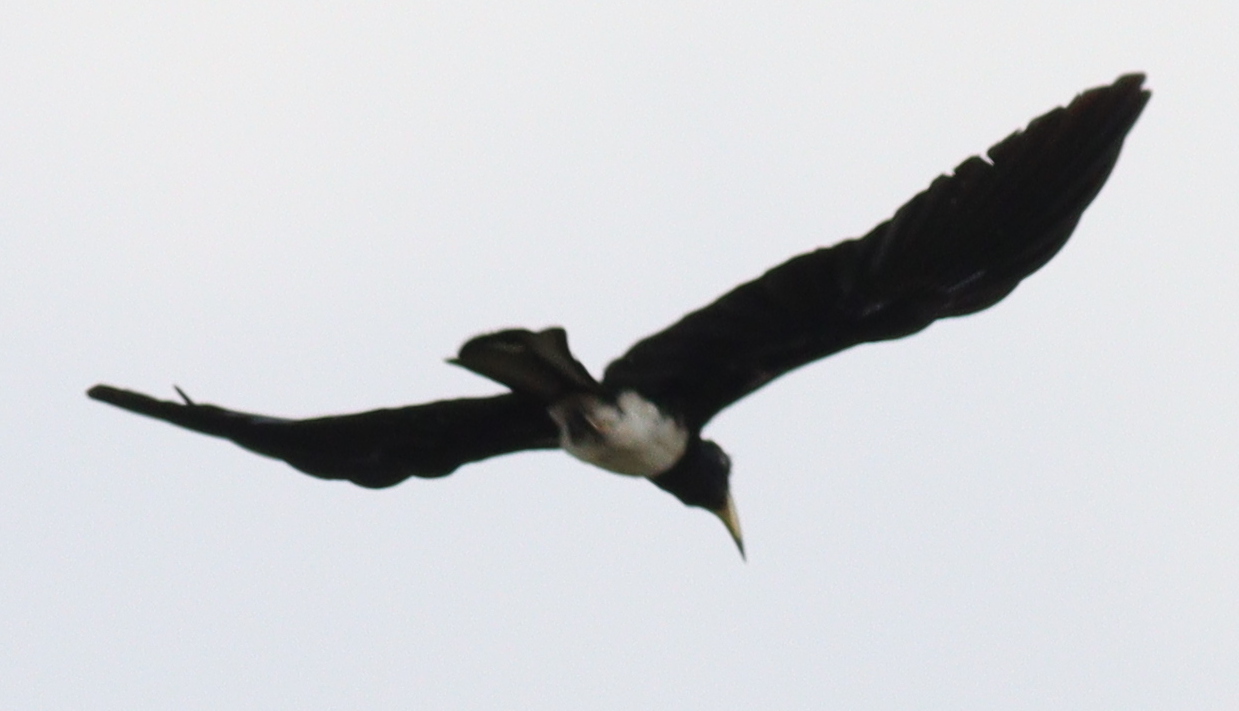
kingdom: Animalia
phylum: Chordata
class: Aves
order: Bucerotiformes
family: Bucerotidae
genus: Lophoceros
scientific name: Lophoceros fasciatus
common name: African pied hornbill
